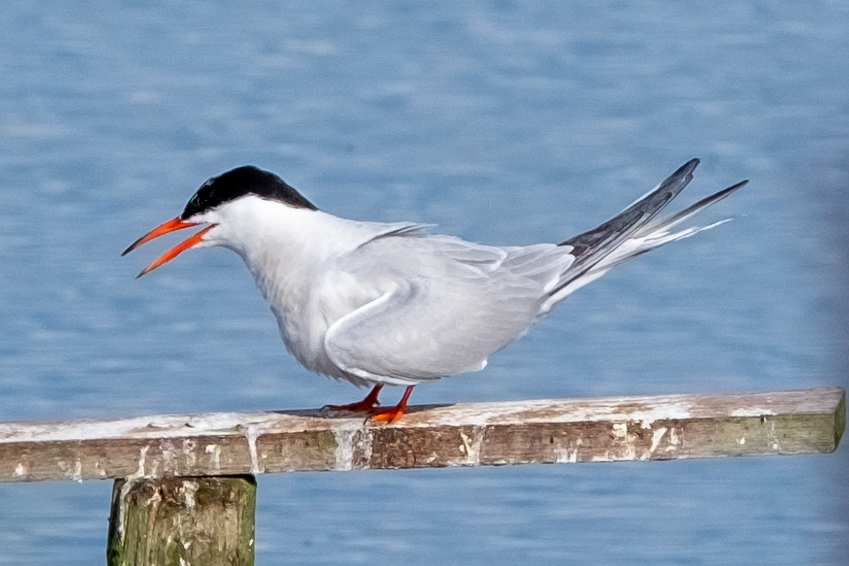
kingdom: Animalia
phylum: Chordata
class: Aves
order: Charadriiformes
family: Laridae
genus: Sterna
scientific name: Sterna hirundo
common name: Common tern
